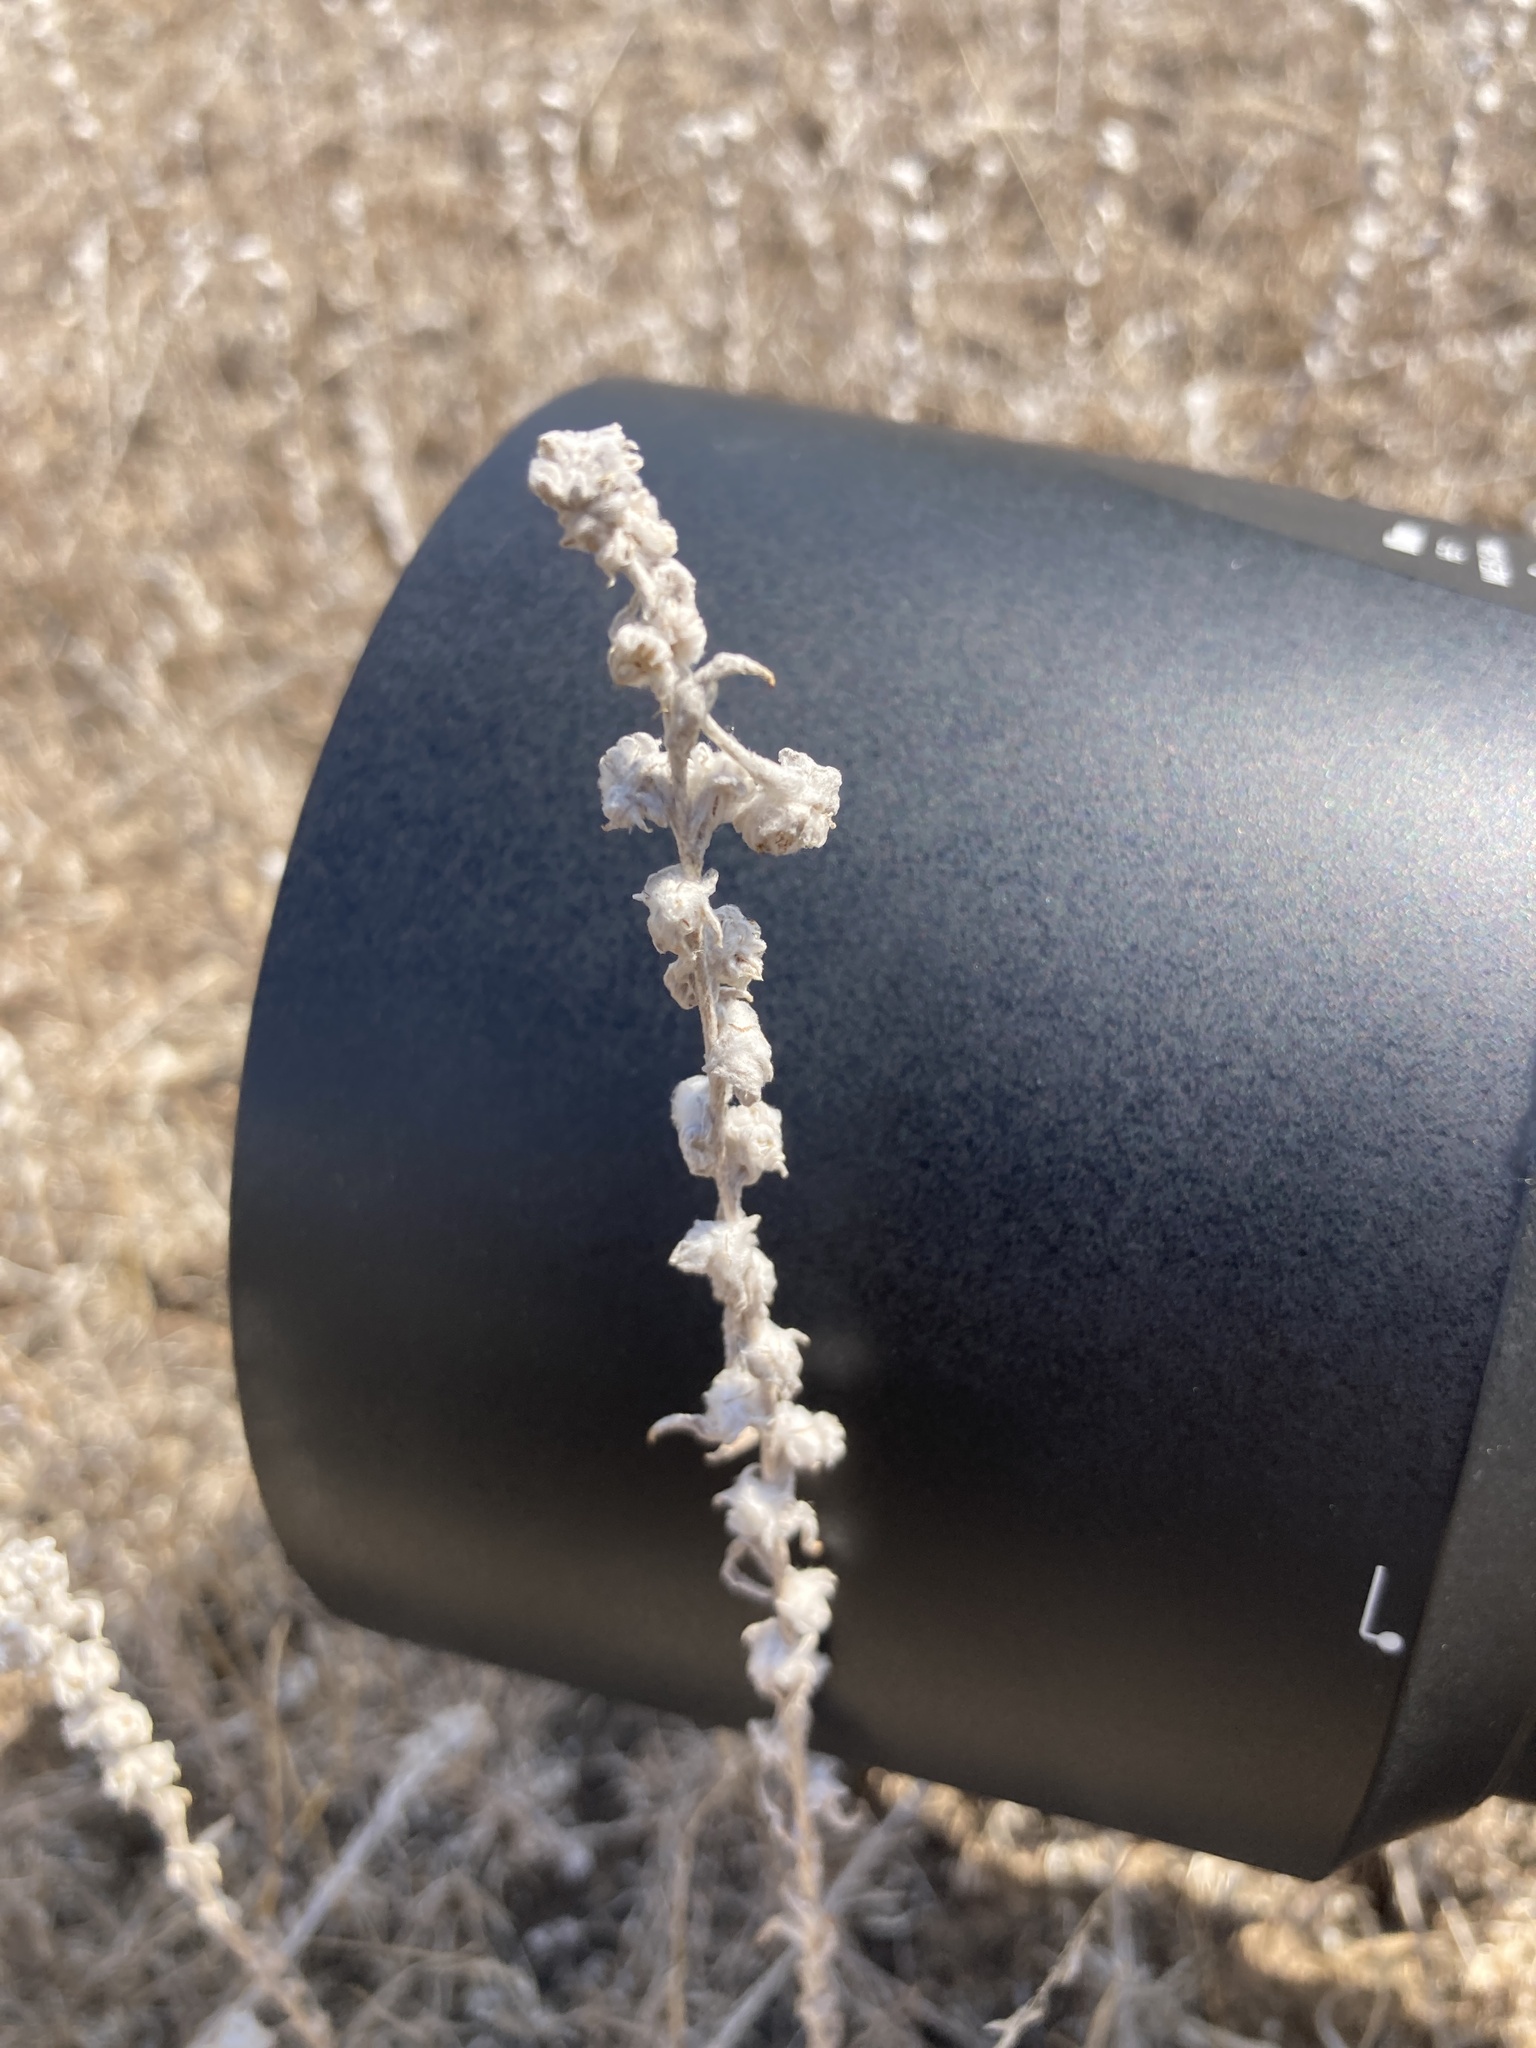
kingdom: Plantae
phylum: Tracheophyta
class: Magnoliopsida
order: Asterales
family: Asteraceae
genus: Filago
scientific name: Filago arvensis
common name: Field cudweed
